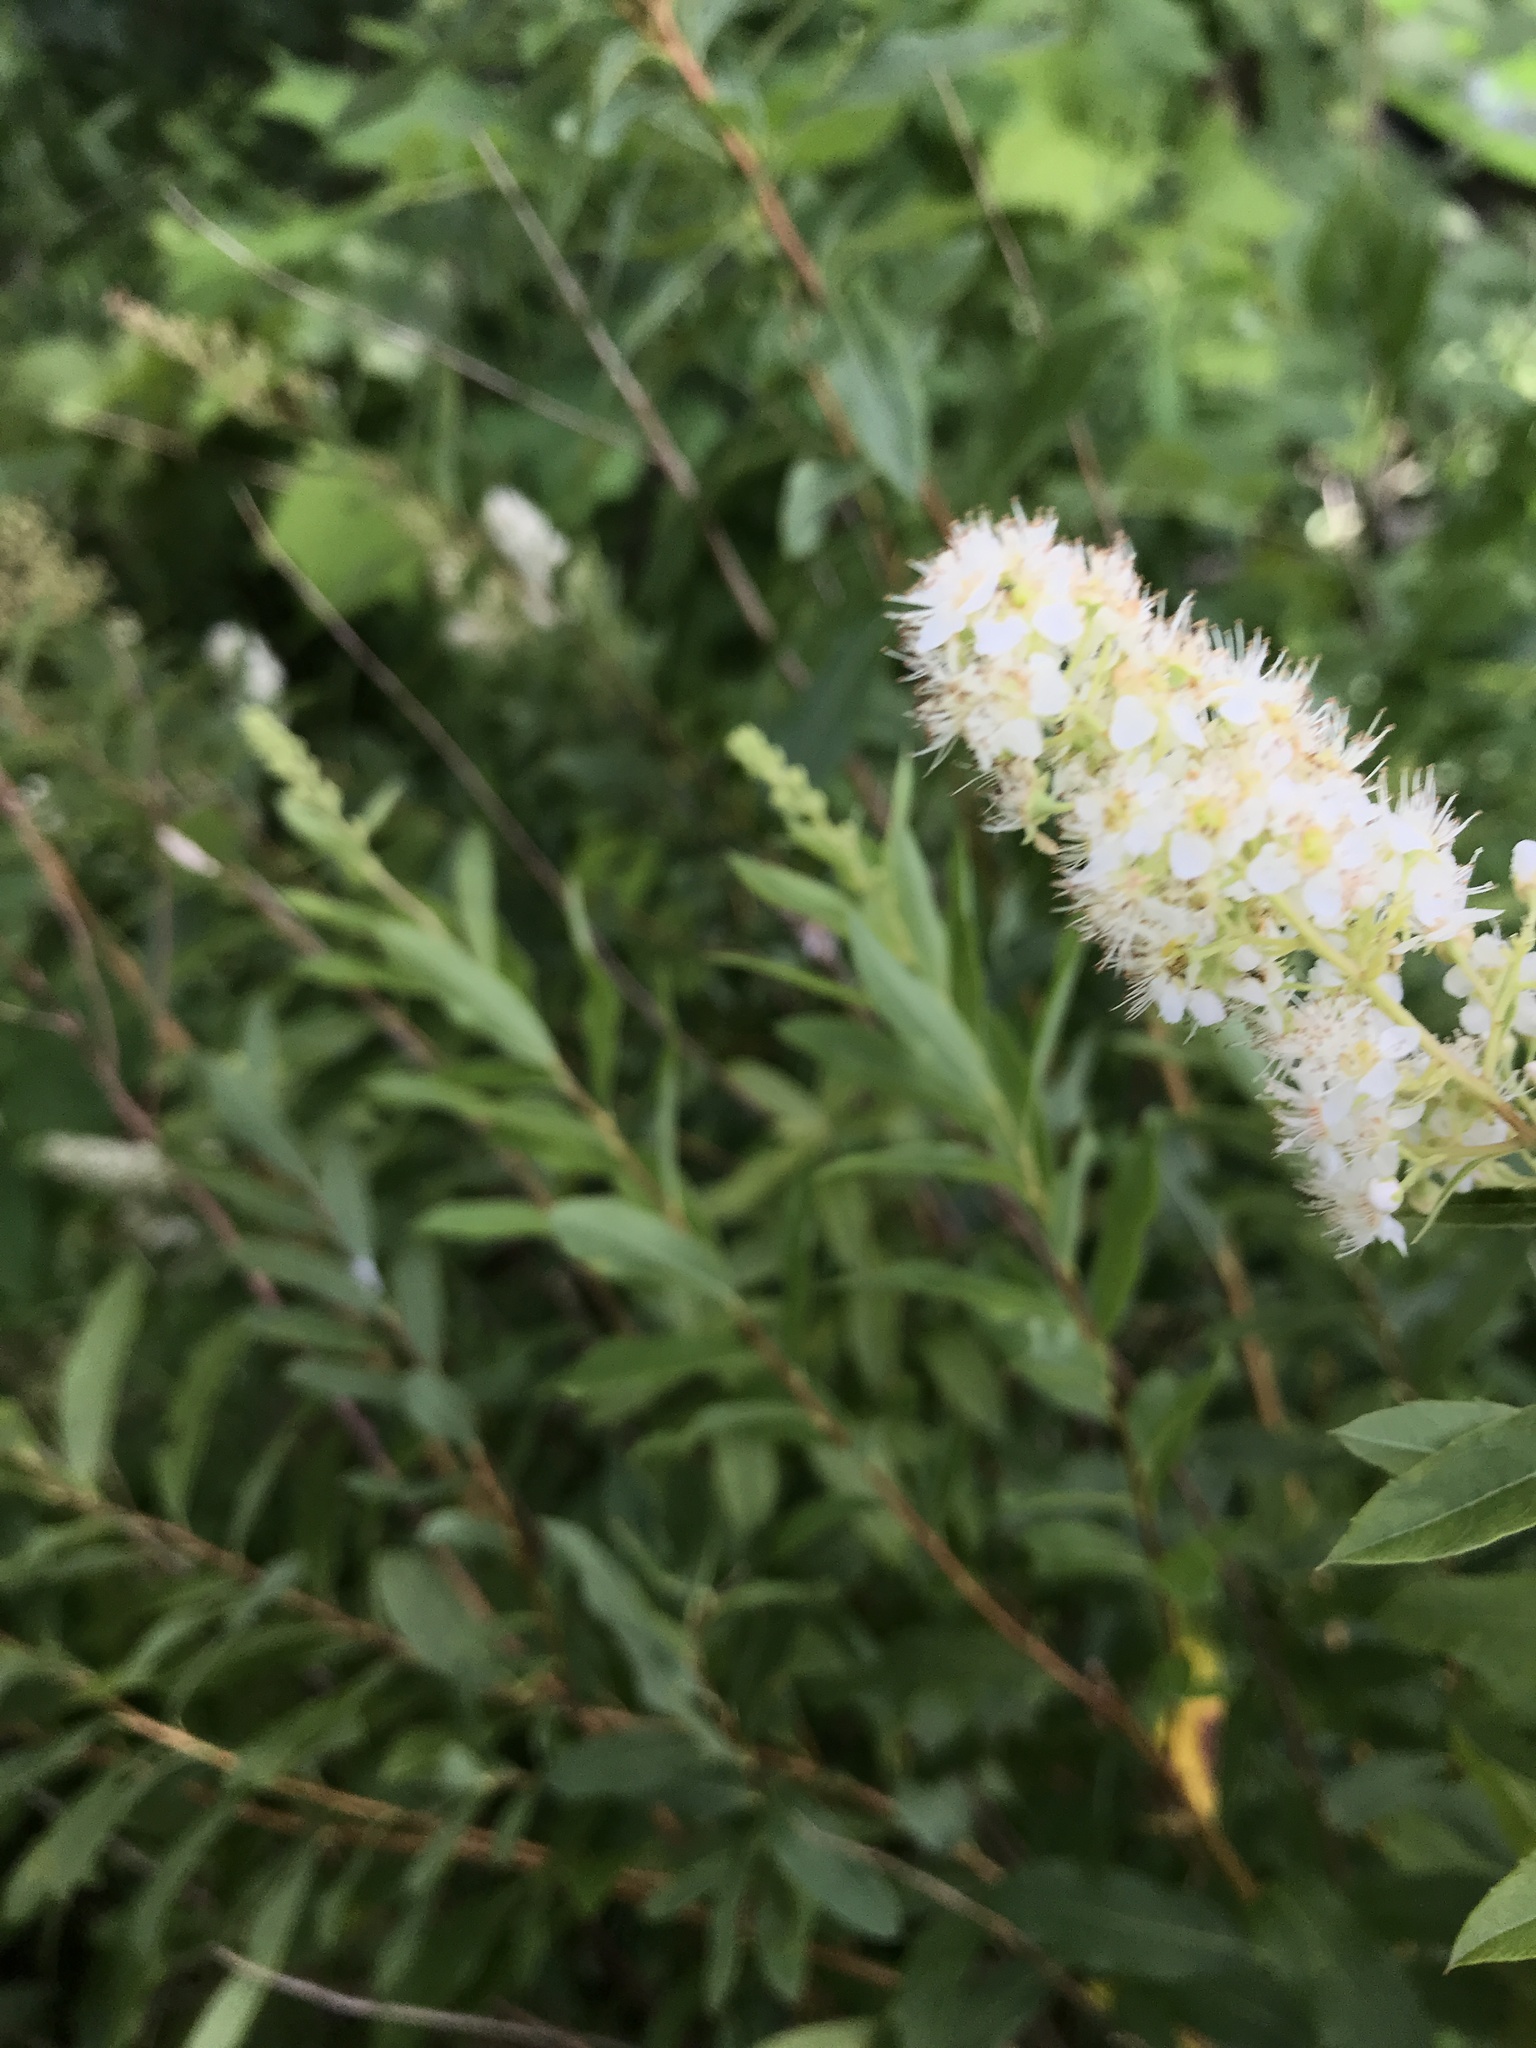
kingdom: Plantae
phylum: Tracheophyta
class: Magnoliopsida
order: Rosales
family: Rosaceae
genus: Spiraea
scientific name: Spiraea alba
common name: Pale bridewort
